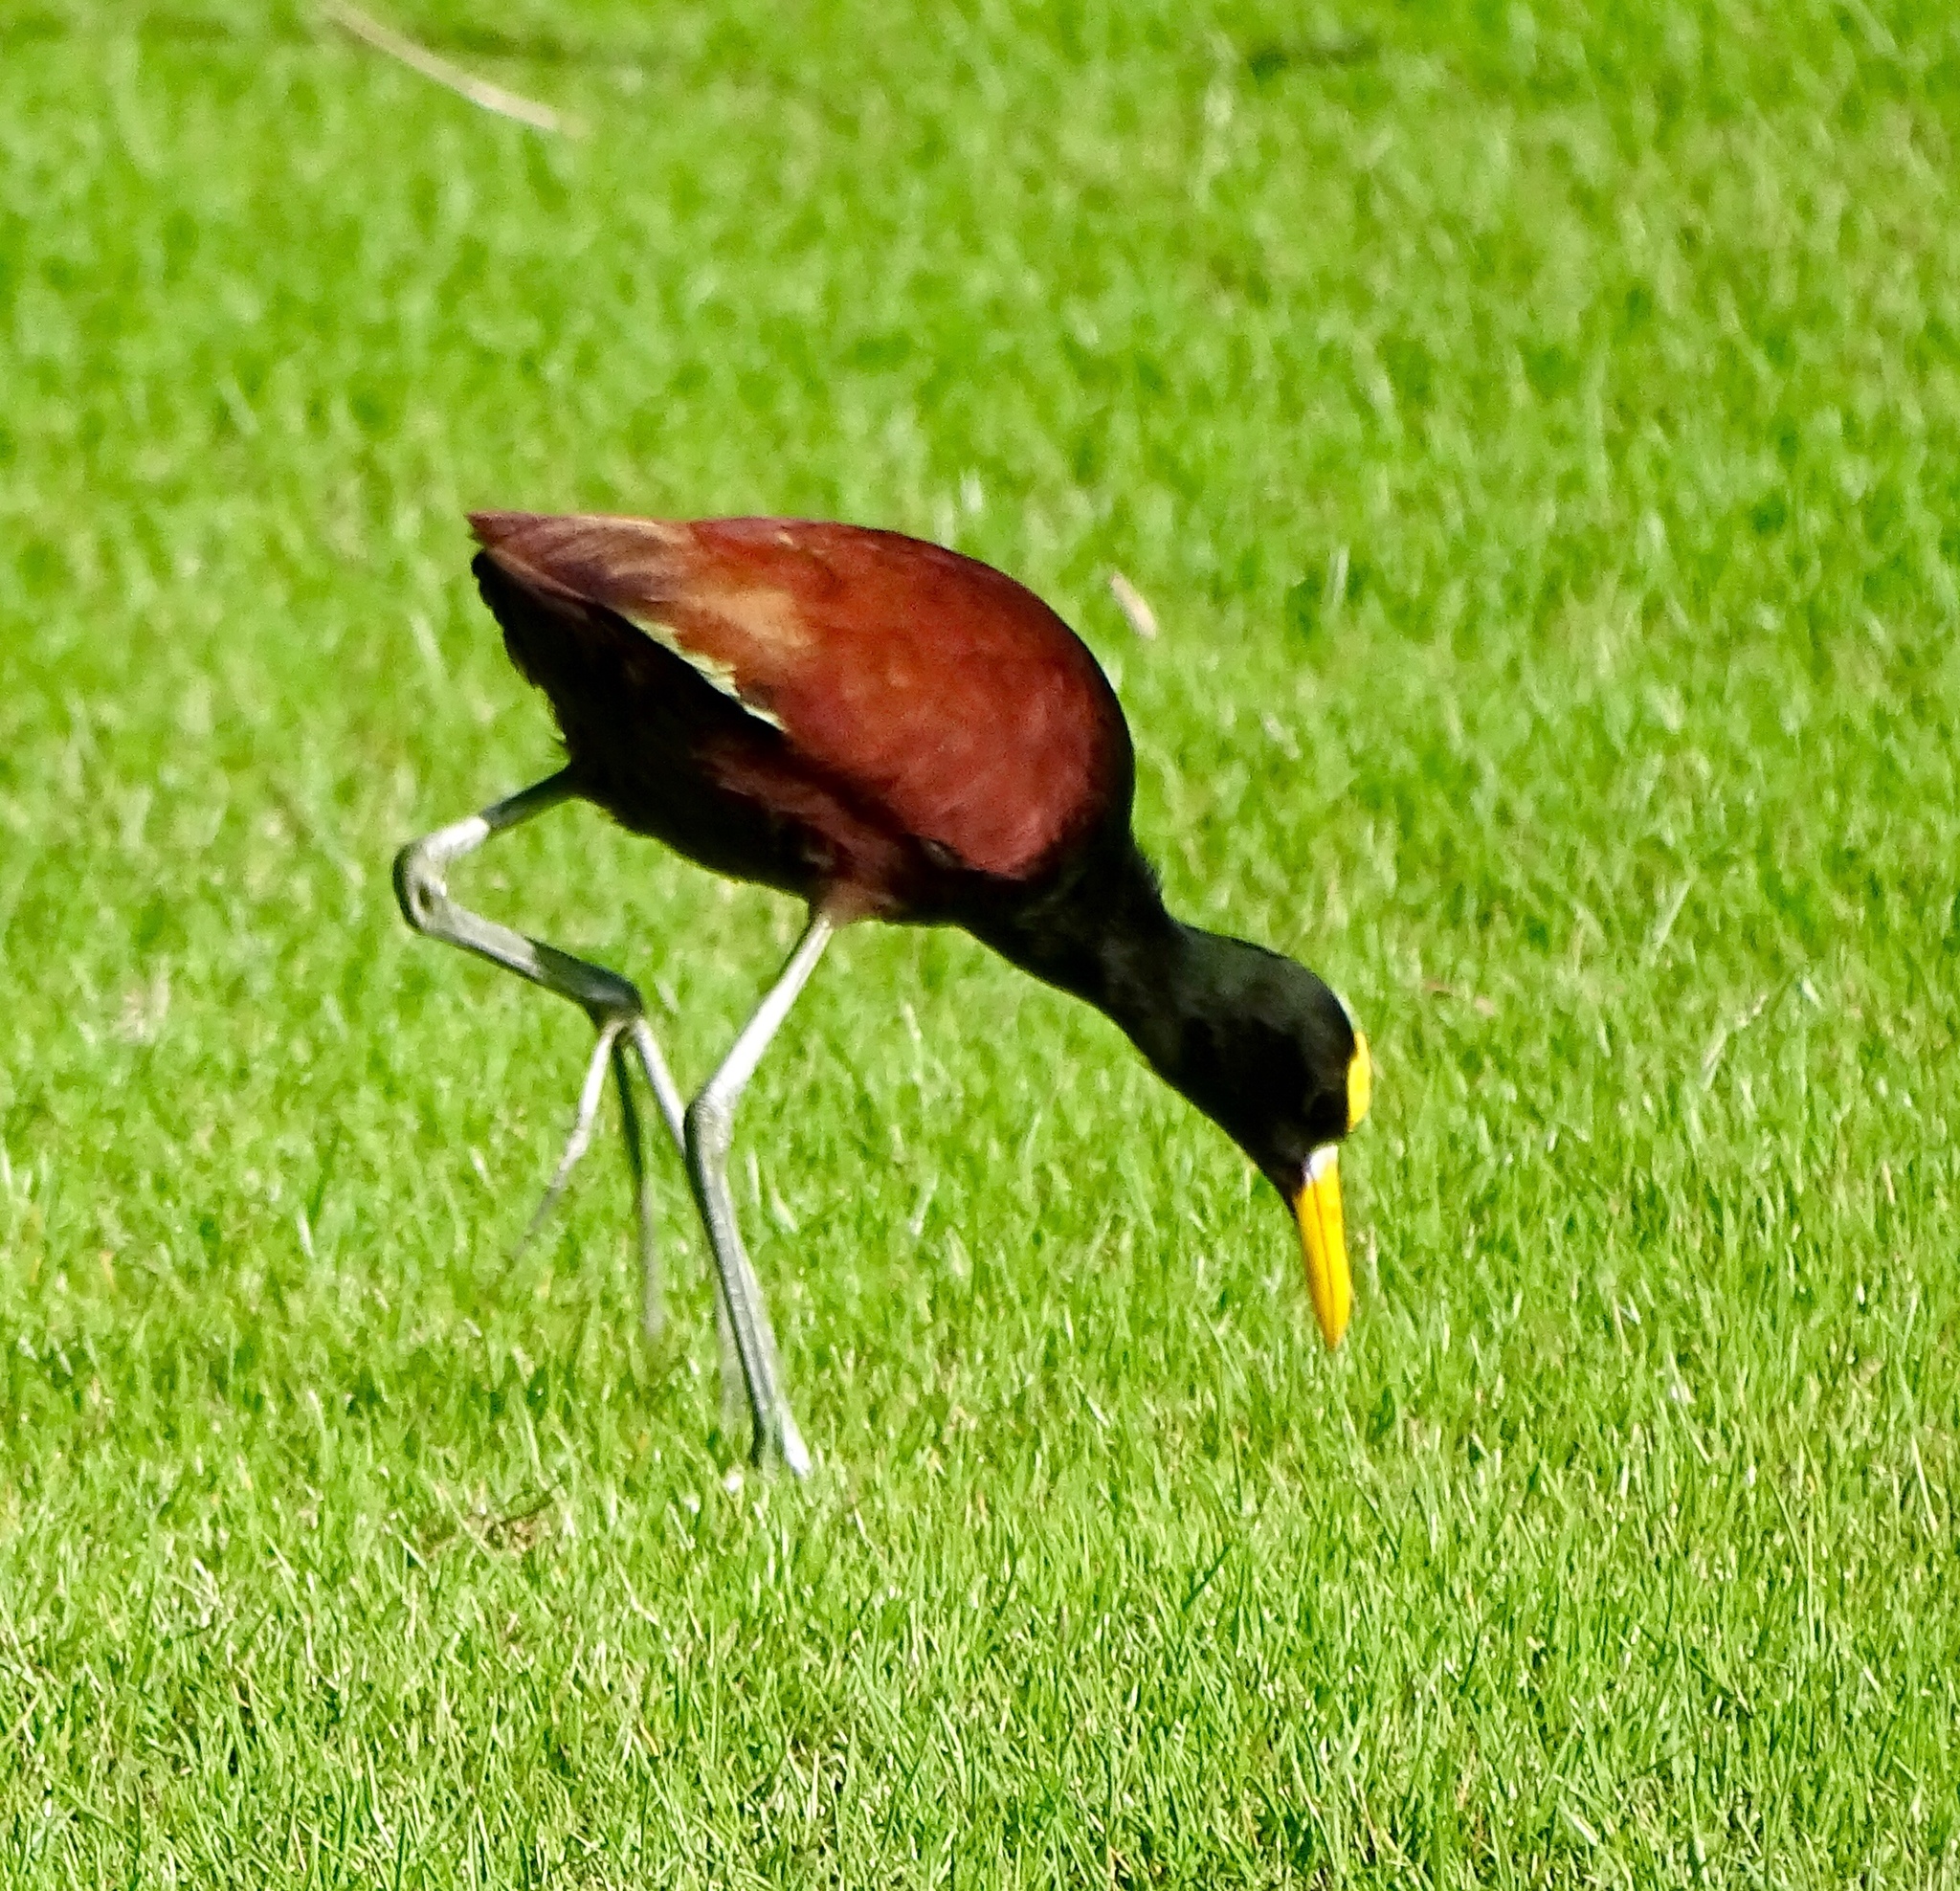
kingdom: Animalia
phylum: Chordata
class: Aves
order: Charadriiformes
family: Jacanidae
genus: Jacana
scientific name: Jacana spinosa
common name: Northern jacana
